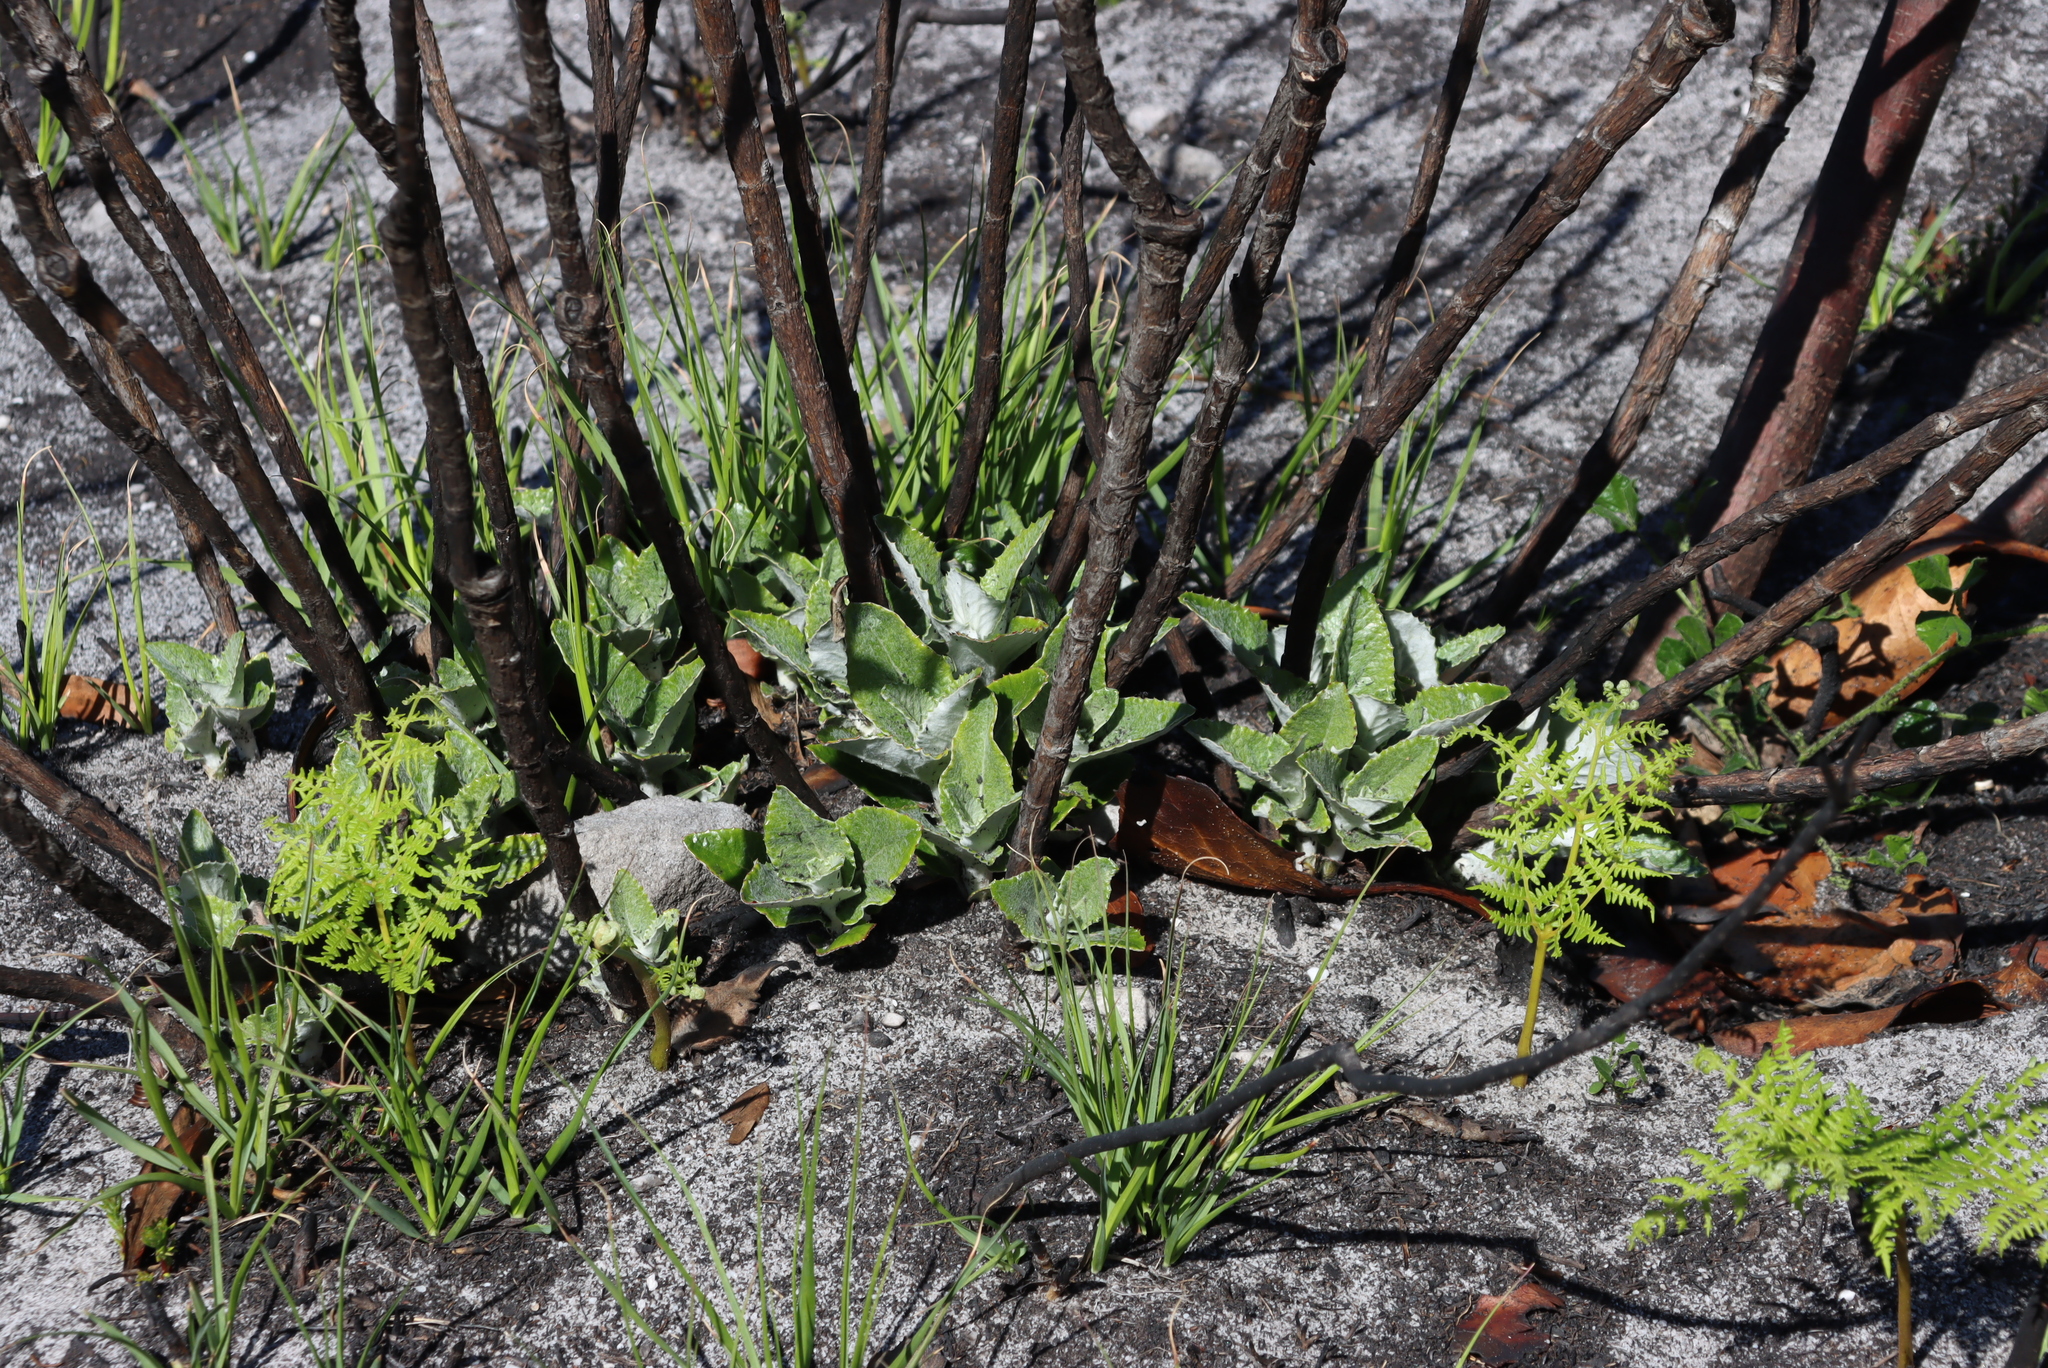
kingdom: Plantae
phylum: Tracheophyta
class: Magnoliopsida
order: Apiales
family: Apiaceae
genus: Hermas
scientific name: Hermas villosa
